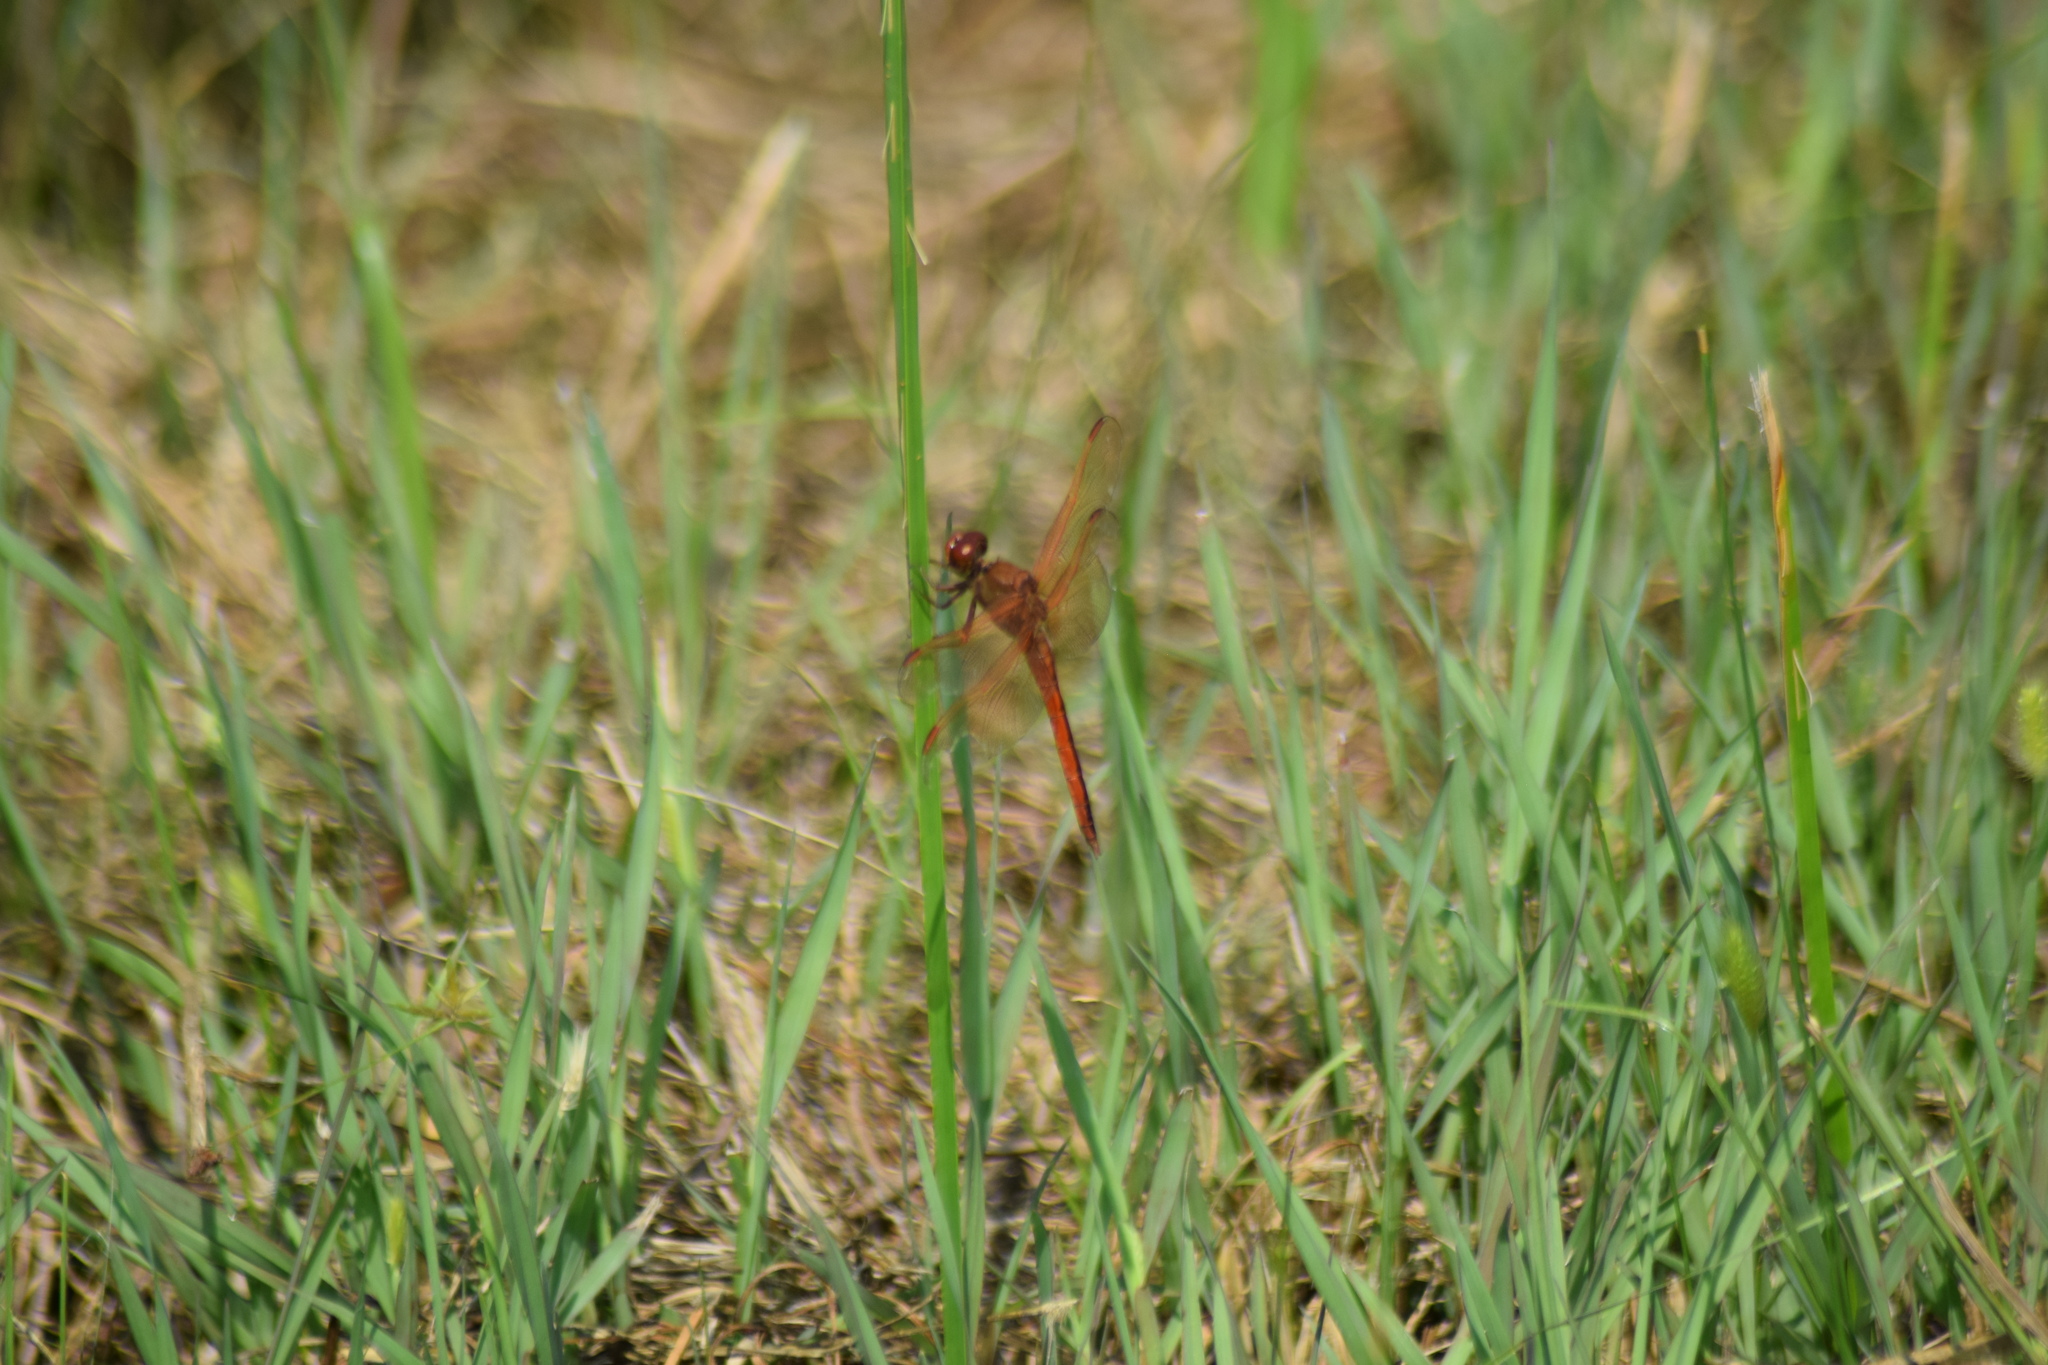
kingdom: Animalia
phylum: Arthropoda
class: Insecta
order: Odonata
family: Libellulidae
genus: Libellula
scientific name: Libellula needhami
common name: Needham's skimmer
